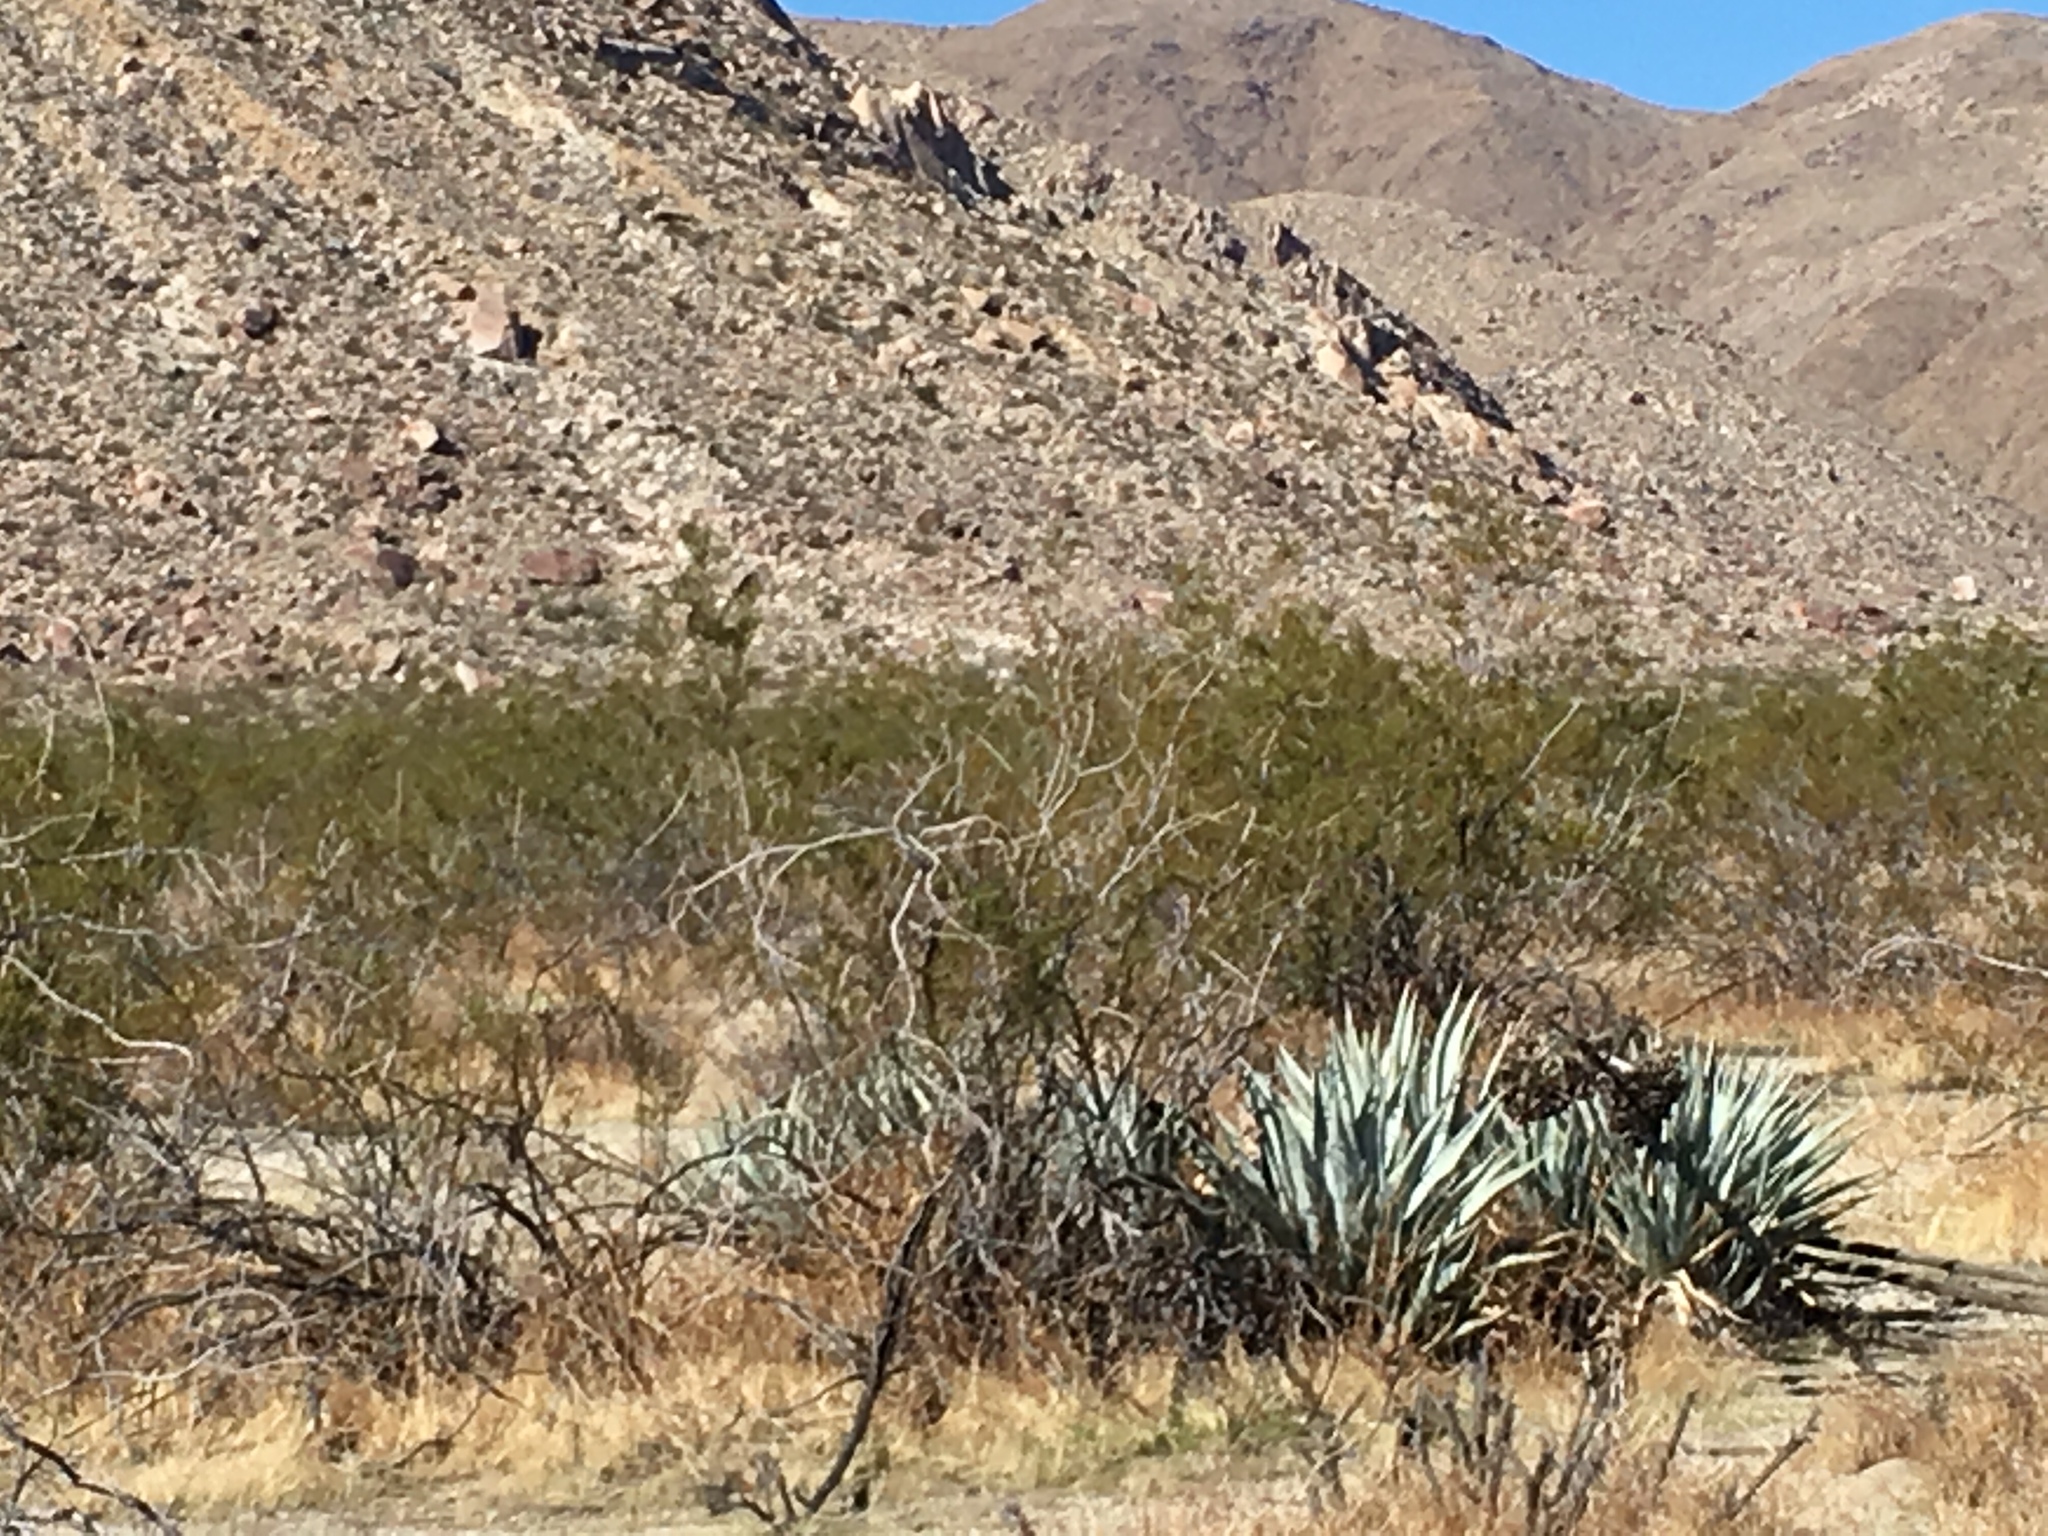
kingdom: Plantae
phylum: Tracheophyta
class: Liliopsida
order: Asparagales
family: Asparagaceae
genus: Agave
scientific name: Agave deserti
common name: Desert agave
